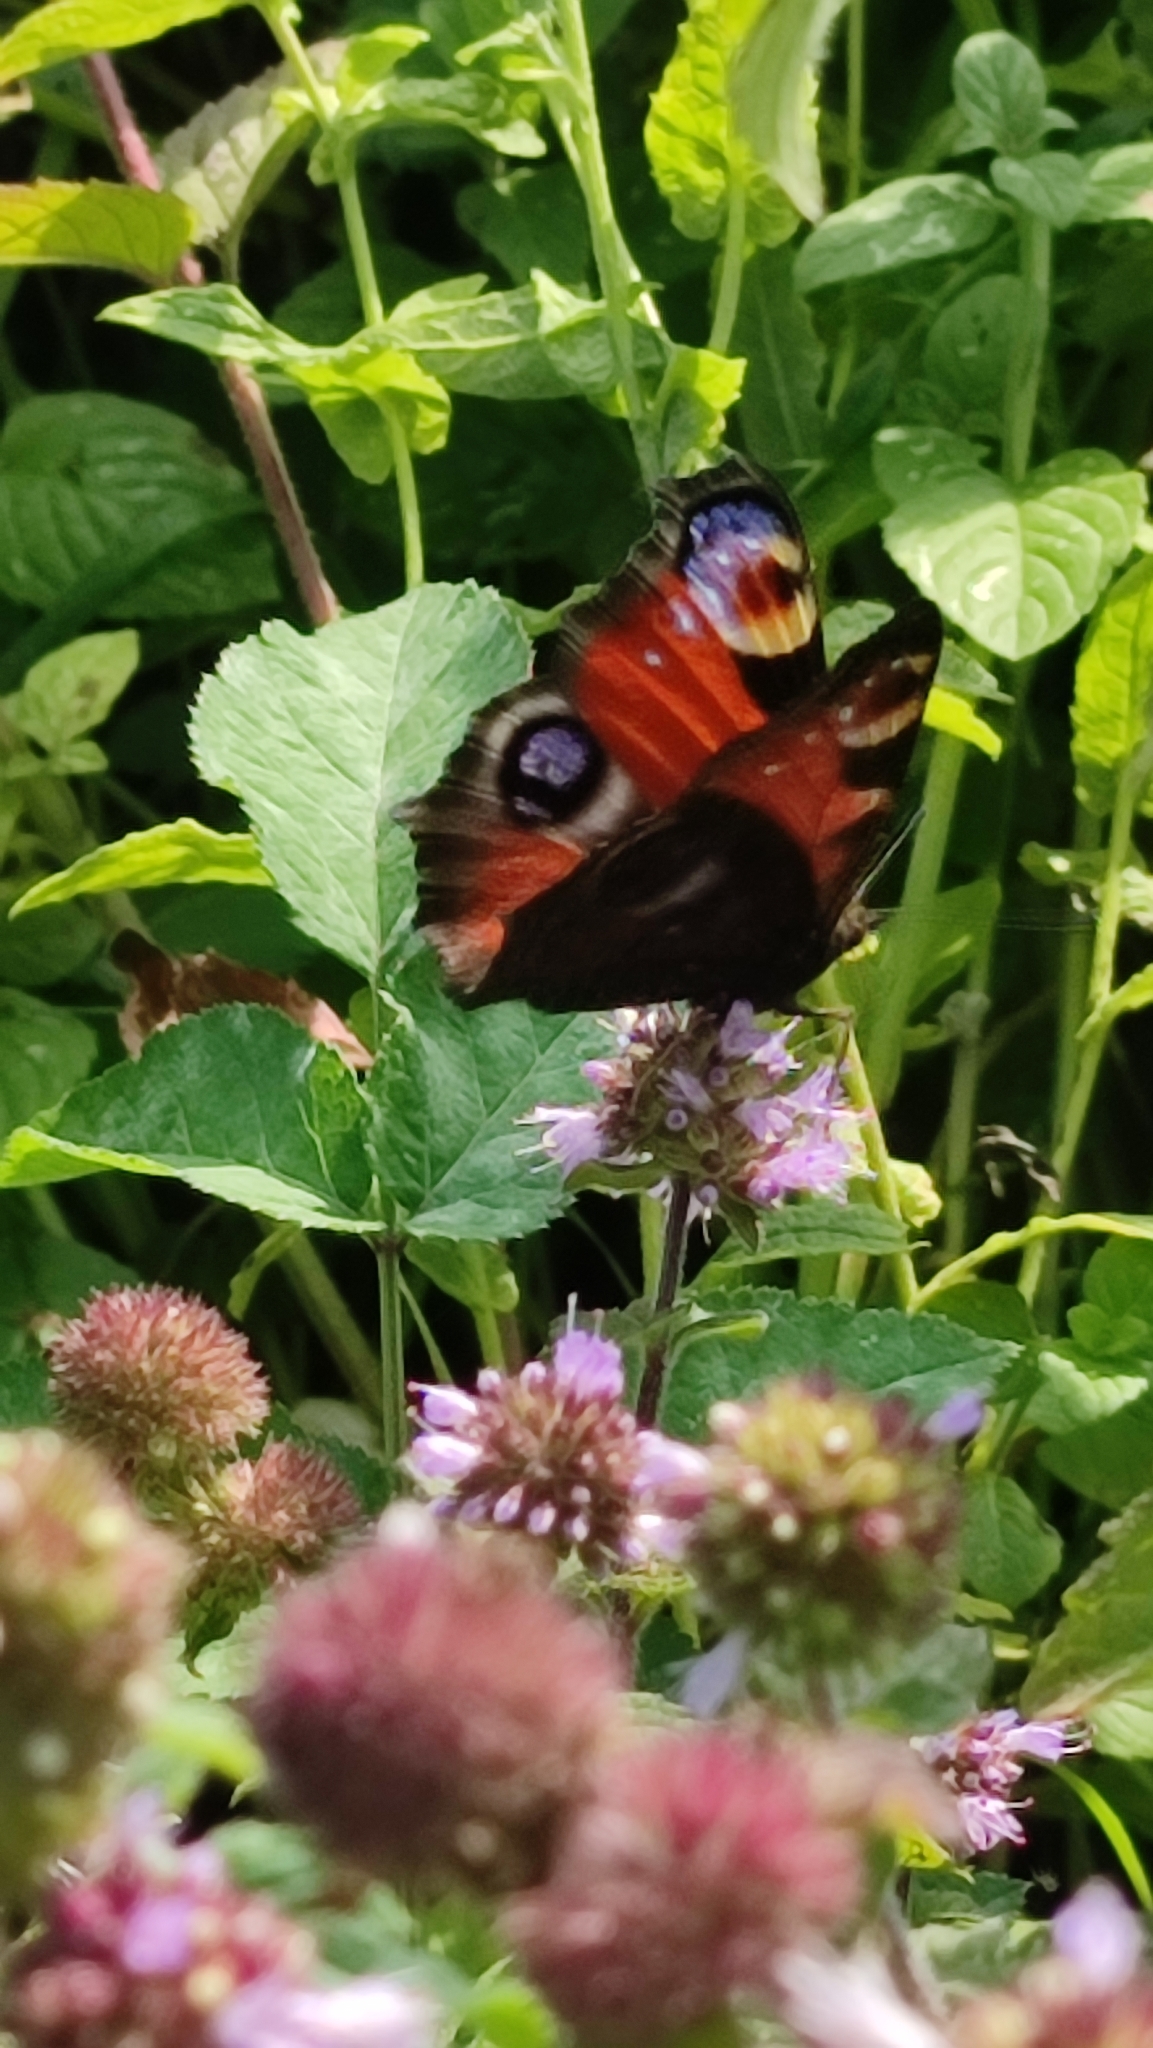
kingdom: Animalia
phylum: Arthropoda
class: Insecta
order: Lepidoptera
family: Nymphalidae
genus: Aglais
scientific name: Aglais io
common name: Peacock
